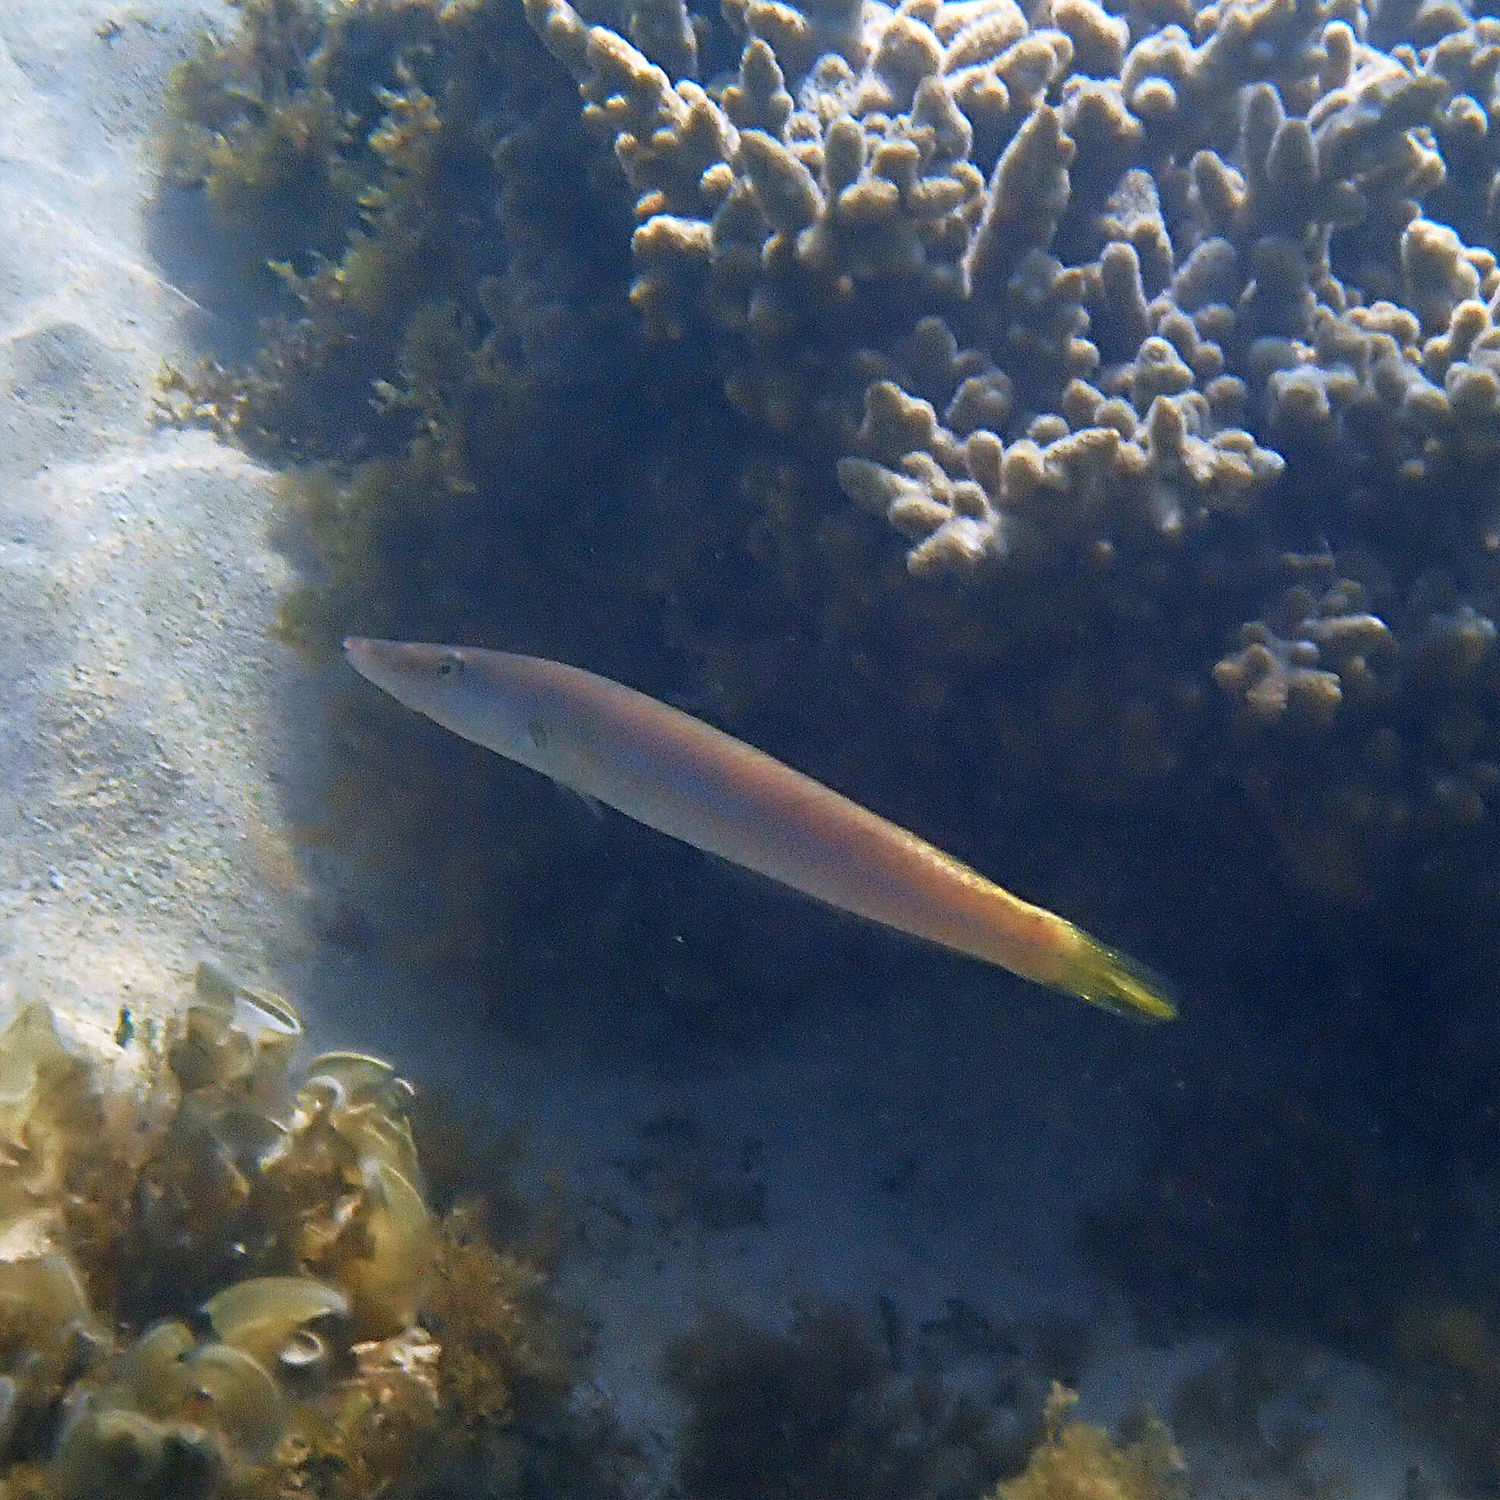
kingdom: Animalia
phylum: Chordata
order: Perciformes
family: Labridae
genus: Cheilio
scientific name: Cheilio inermis
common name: Cigar wrasse
